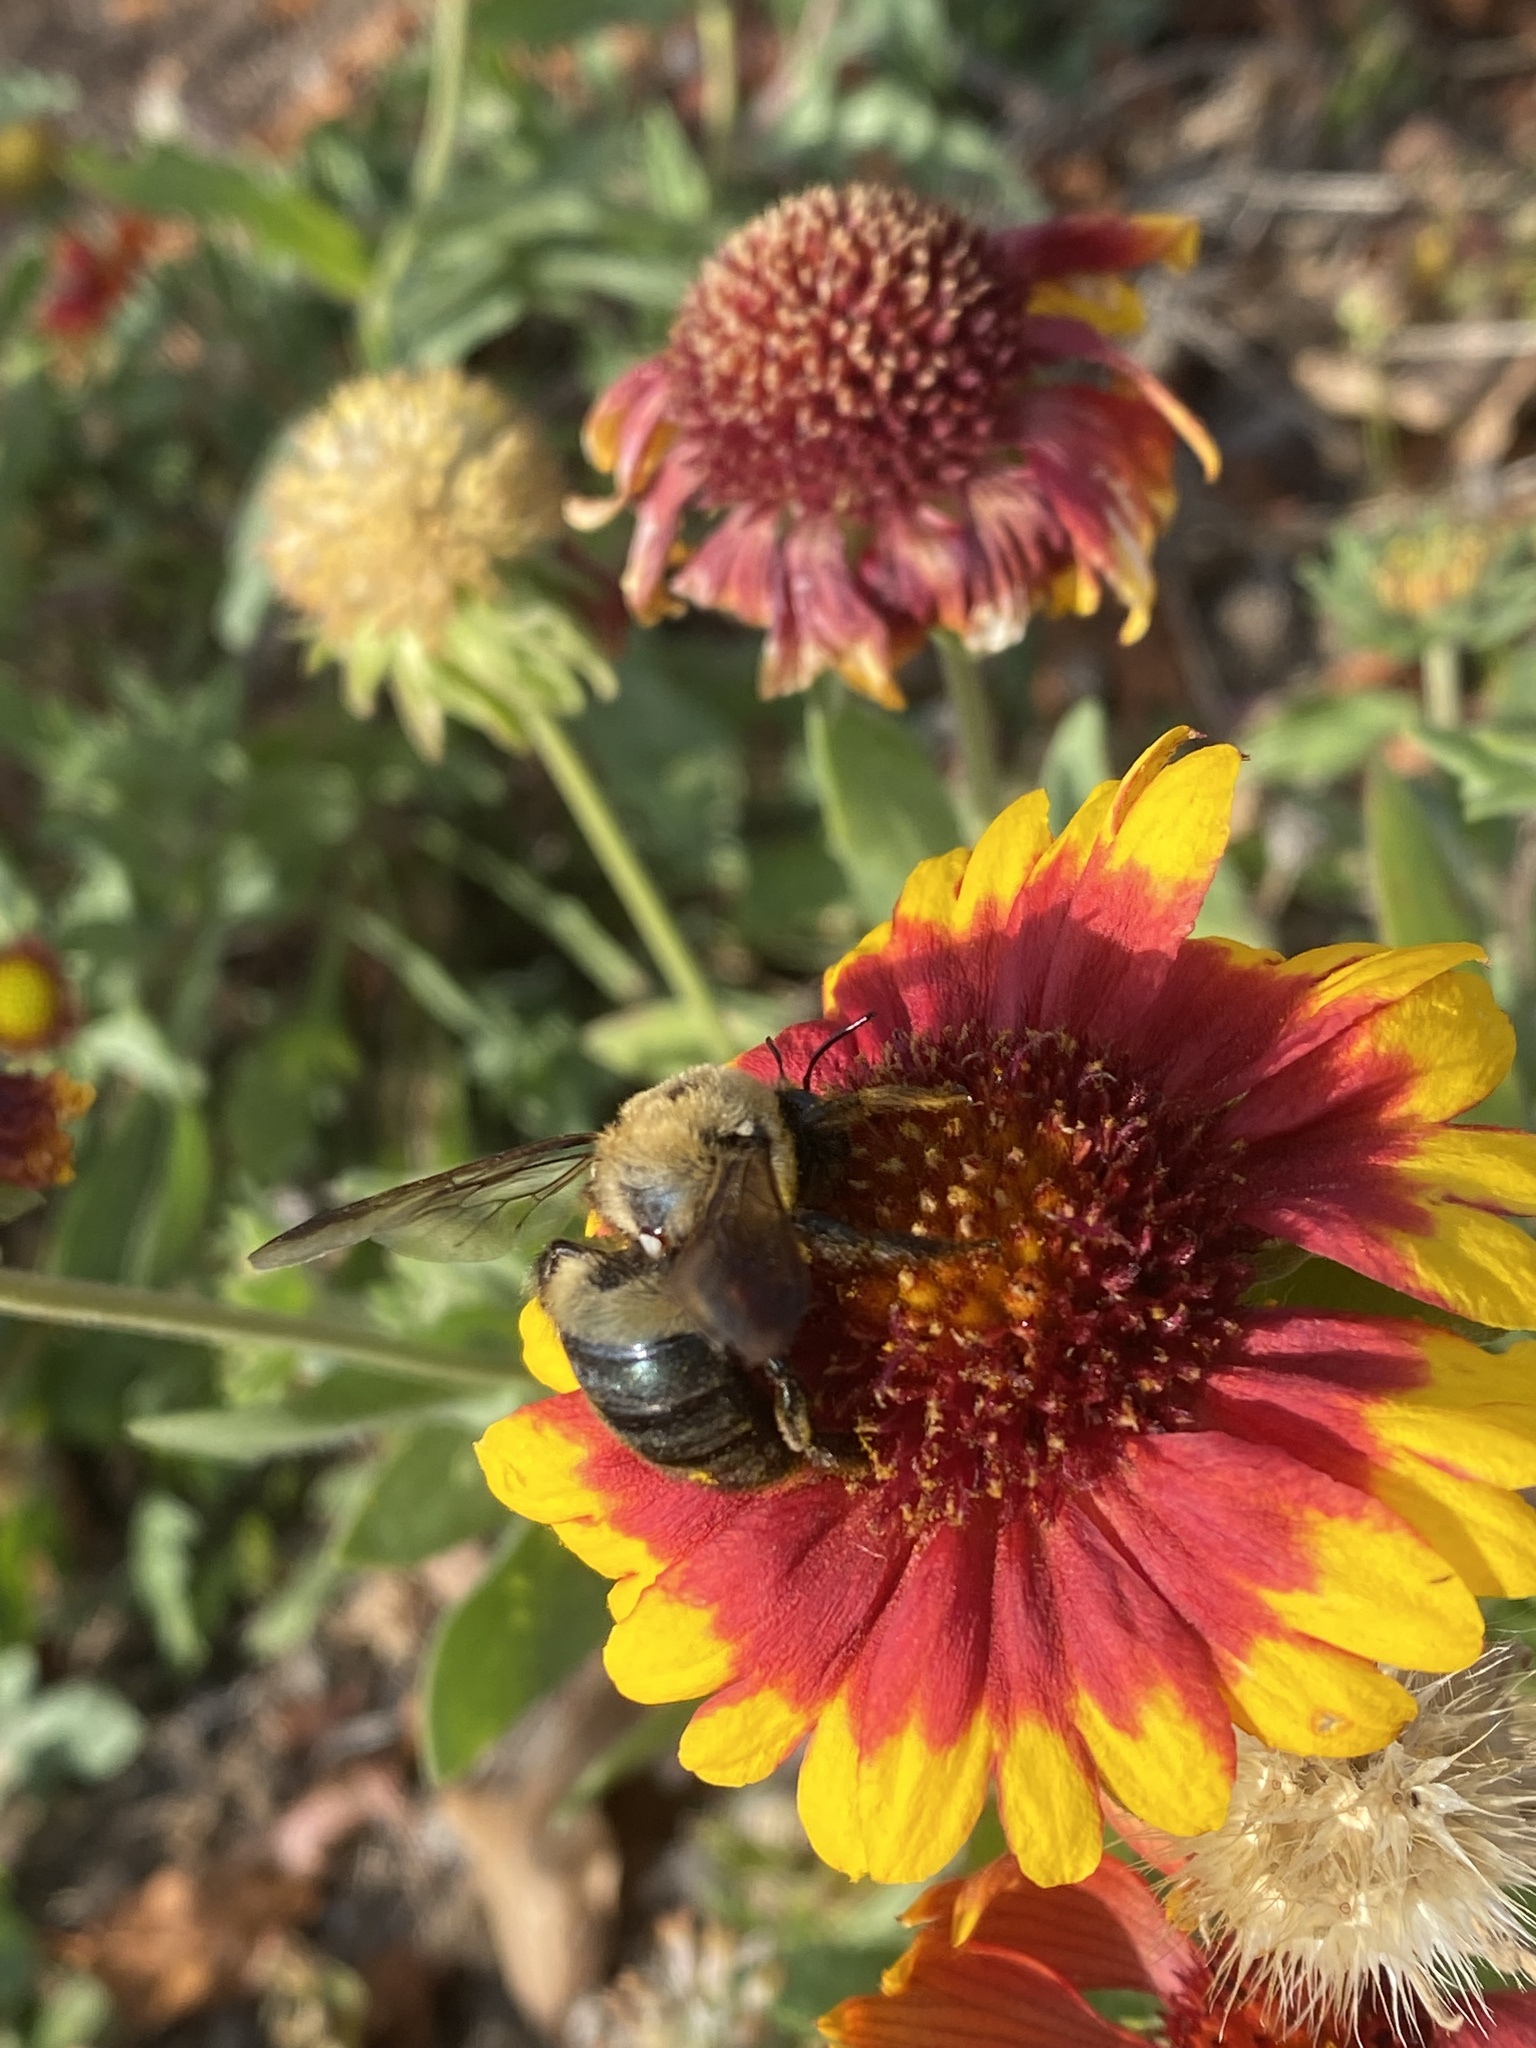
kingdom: Animalia
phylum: Arthropoda
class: Insecta
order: Hymenoptera
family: Apidae
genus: Xylocopa
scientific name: Xylocopa virginica
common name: Carpenter bee
